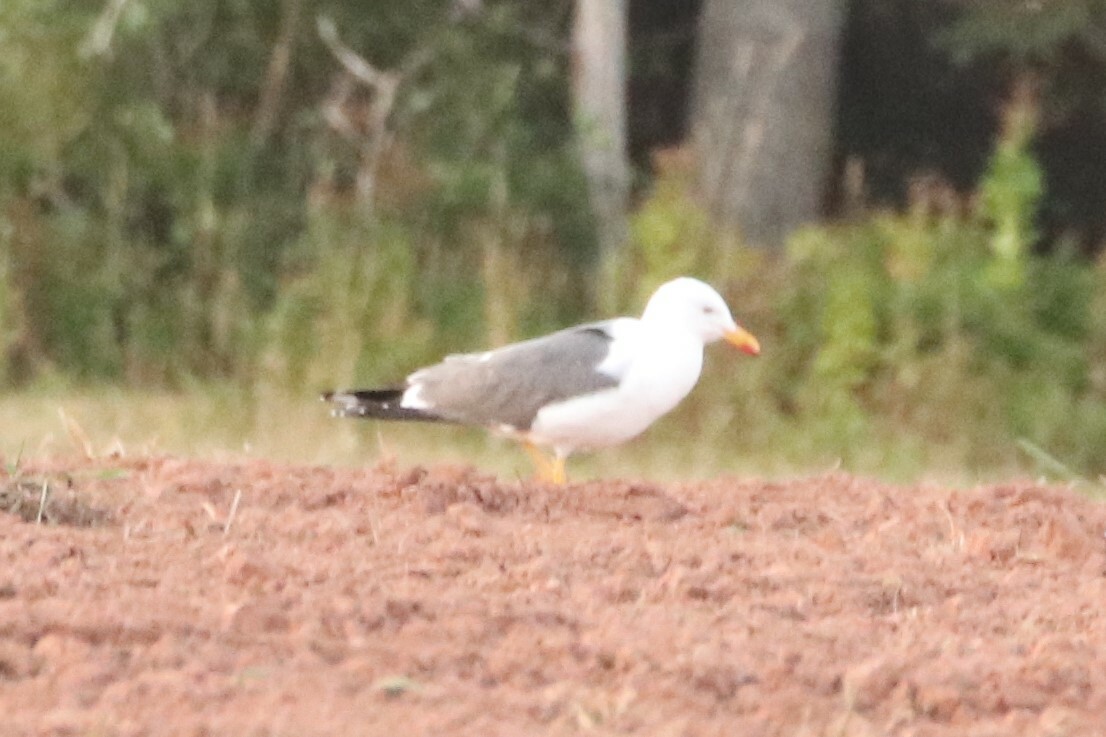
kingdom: Animalia
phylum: Chordata
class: Aves
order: Charadriiformes
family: Laridae
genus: Larus
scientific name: Larus fuscus
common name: Lesser black-backed gull
